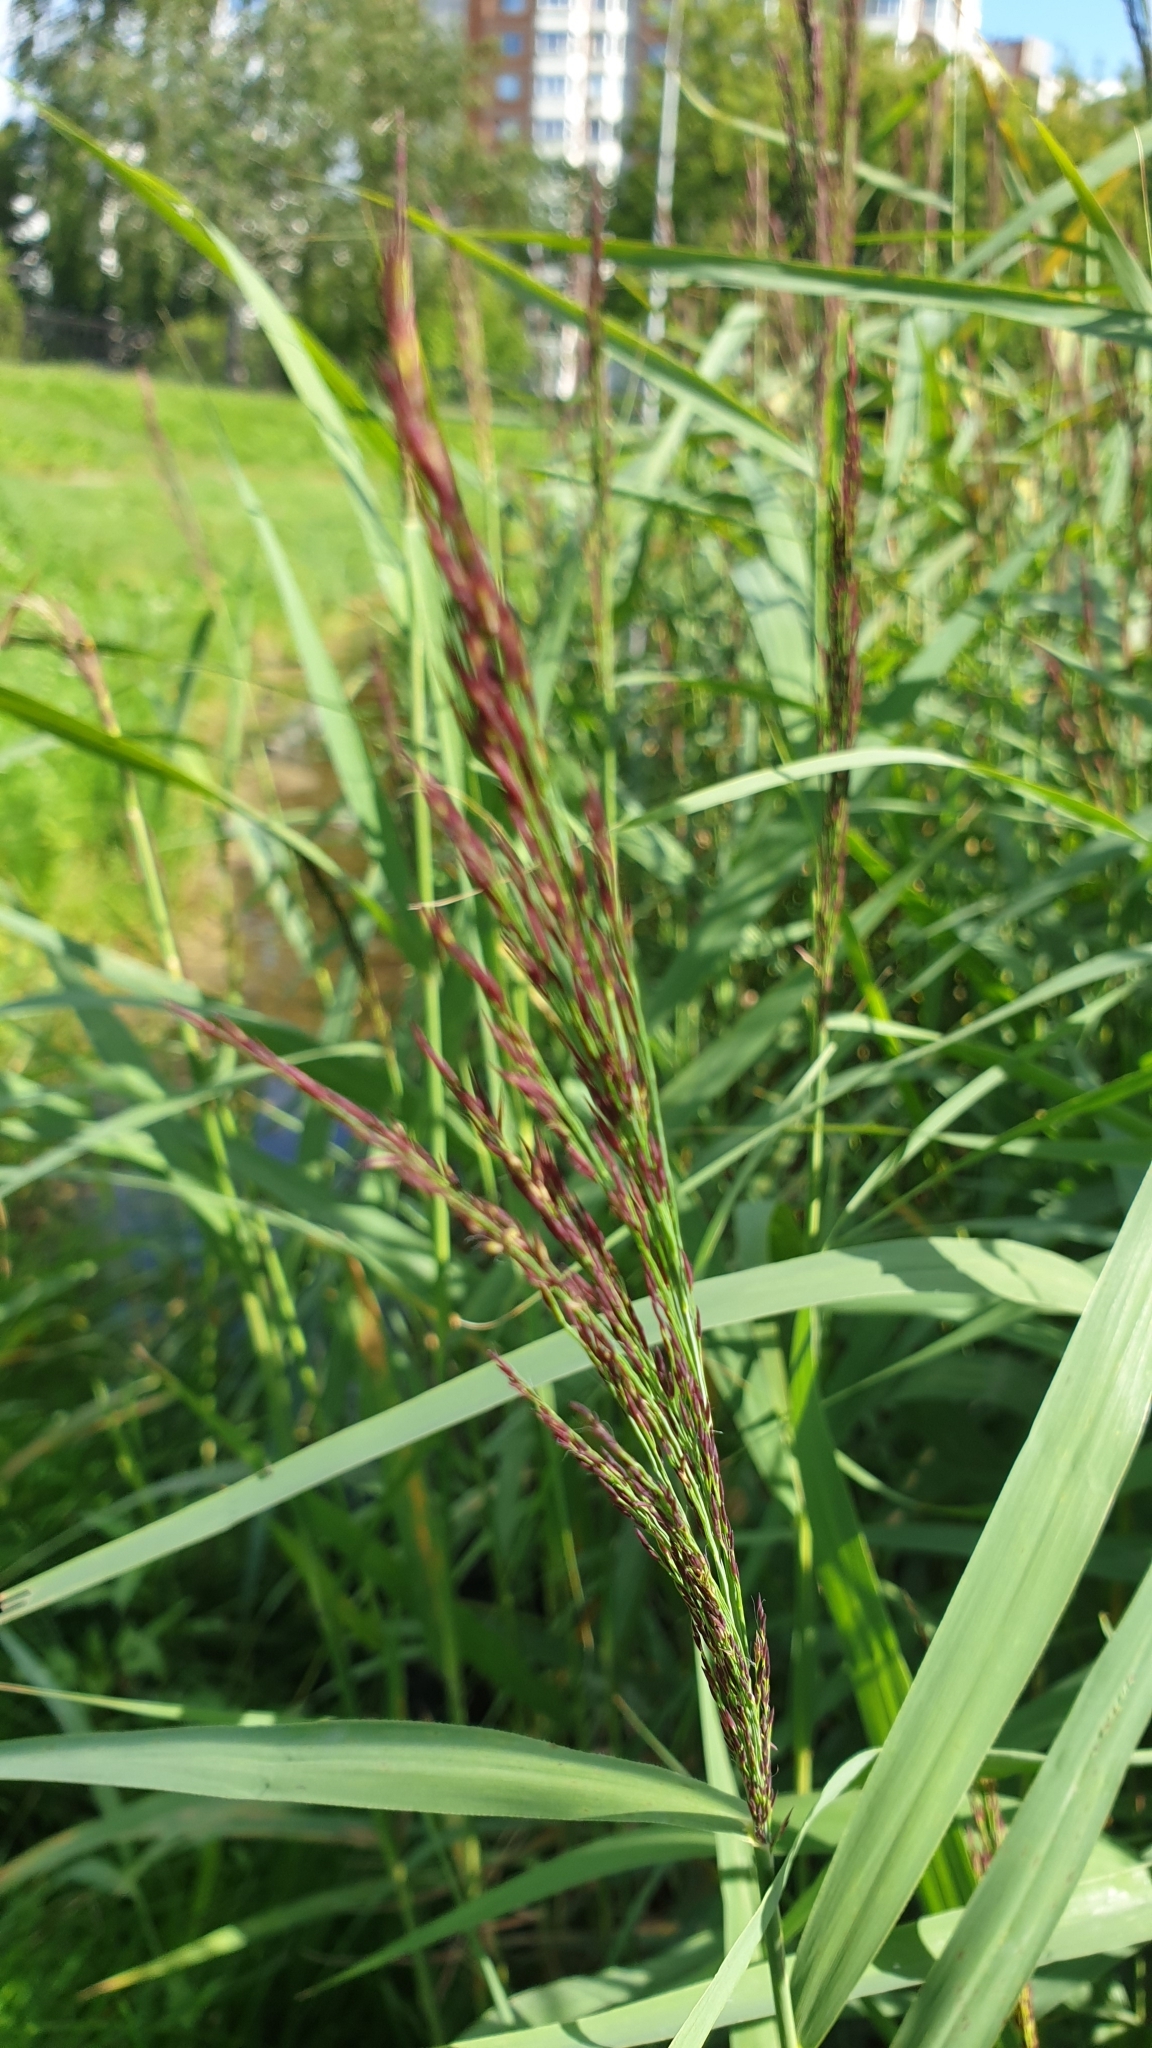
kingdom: Plantae
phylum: Tracheophyta
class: Liliopsida
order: Poales
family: Poaceae
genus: Phragmites
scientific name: Phragmites australis
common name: Common reed
